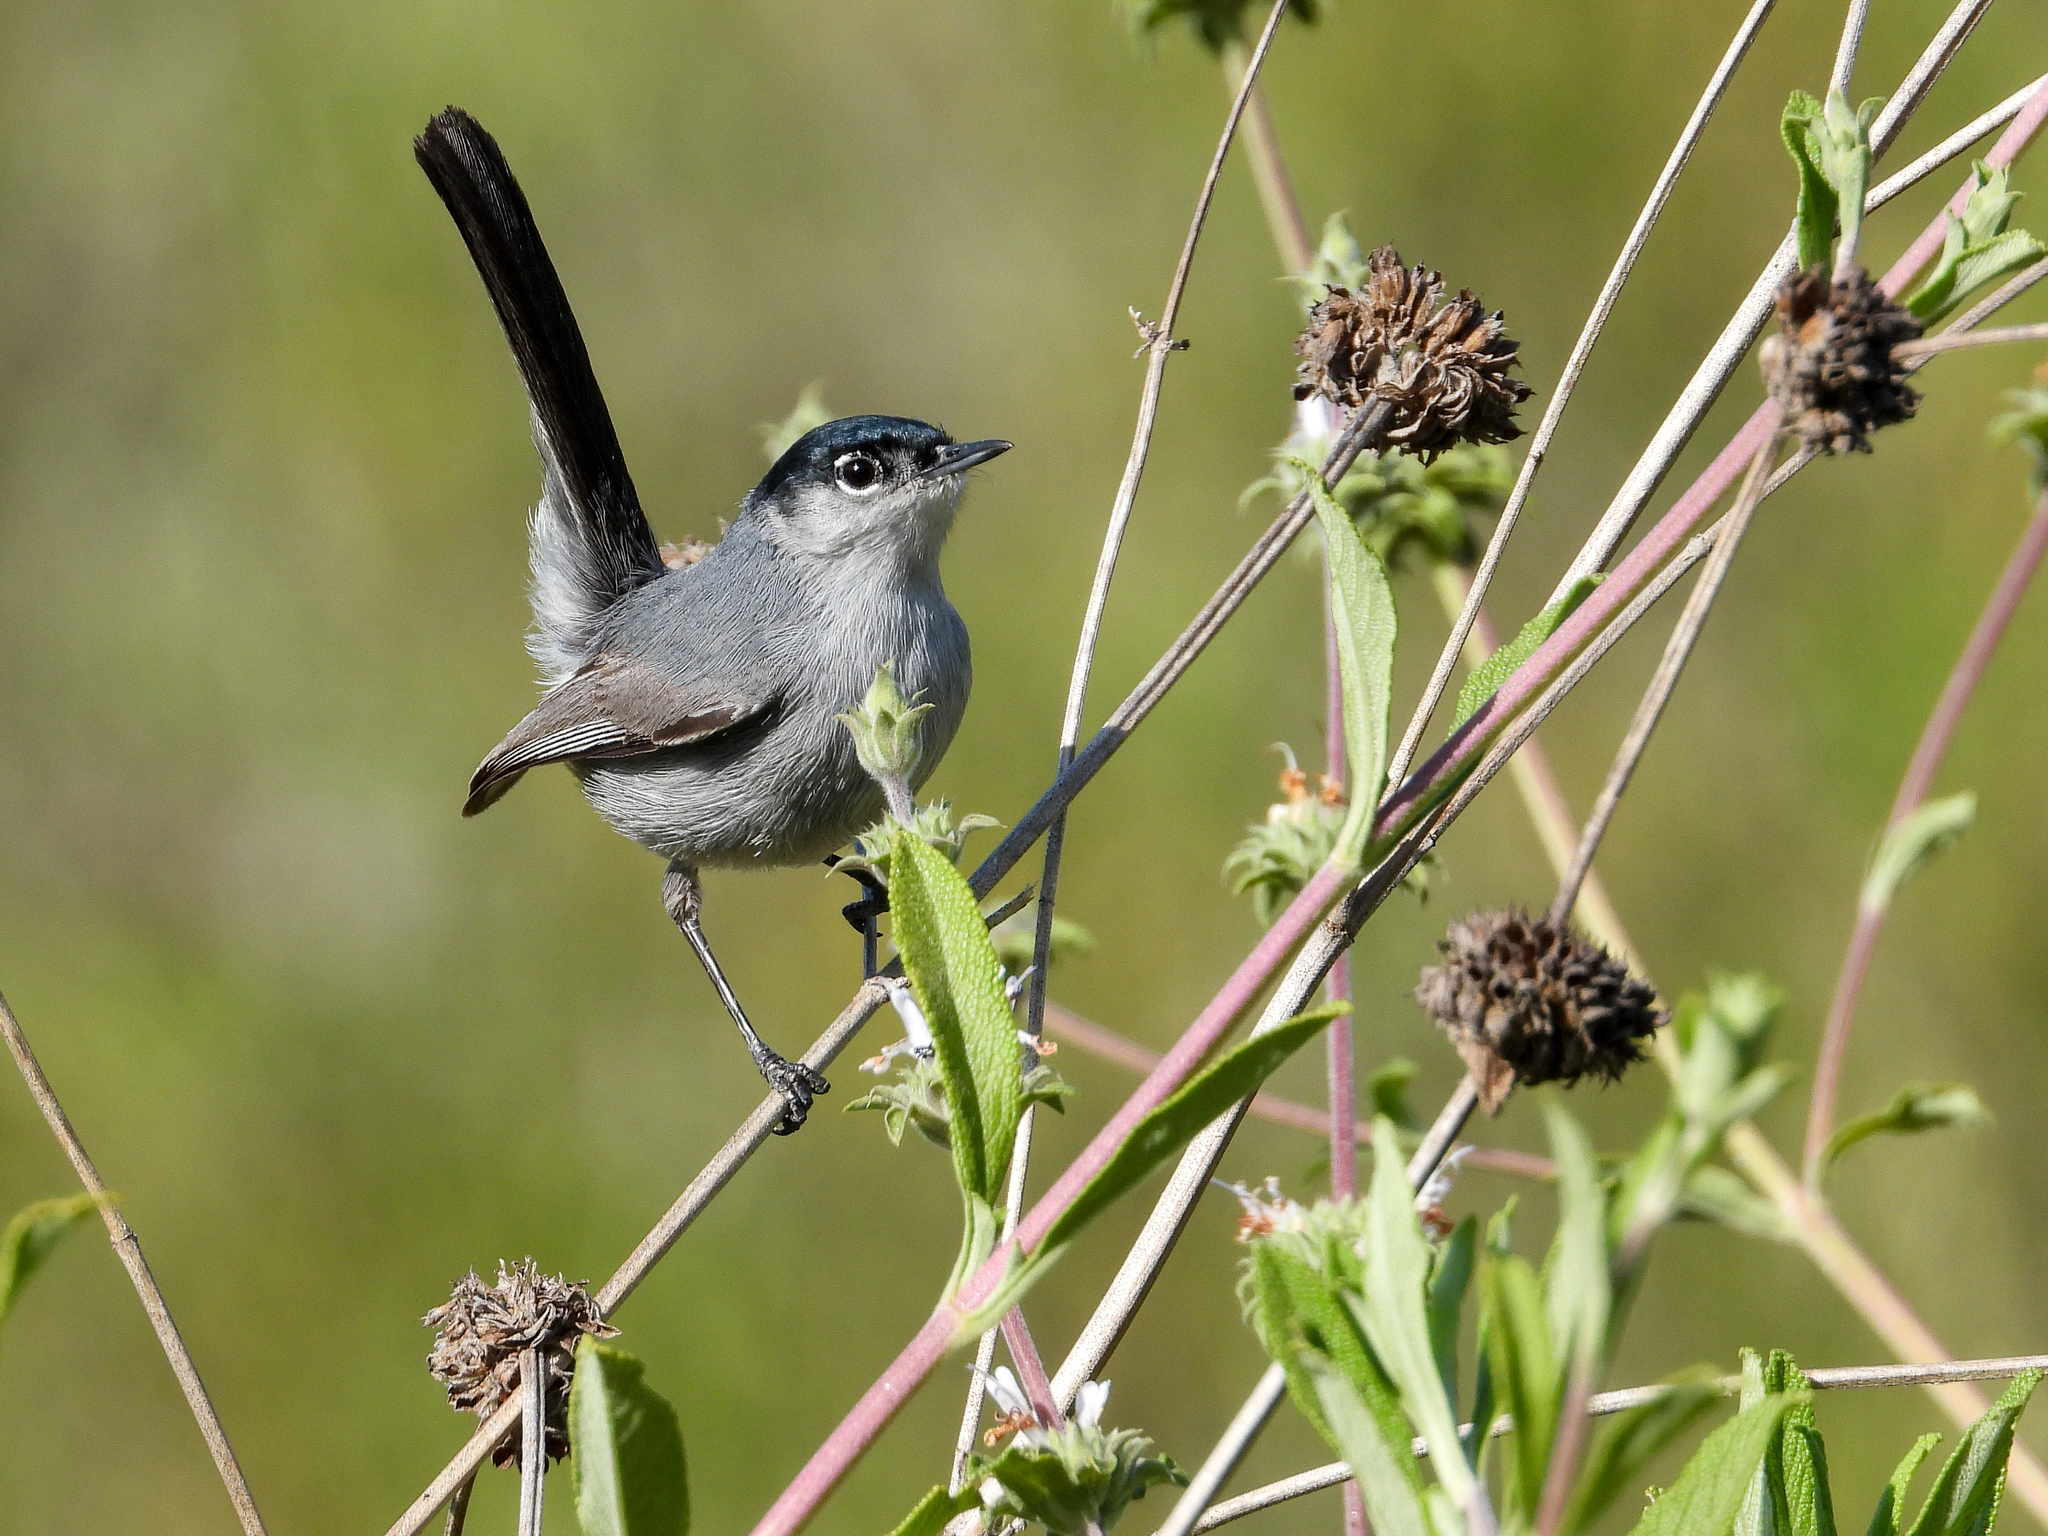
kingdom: Animalia
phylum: Chordata
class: Aves
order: Passeriformes
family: Polioptilidae
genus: Polioptila
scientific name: Polioptila californica
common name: California gnatcatcher
